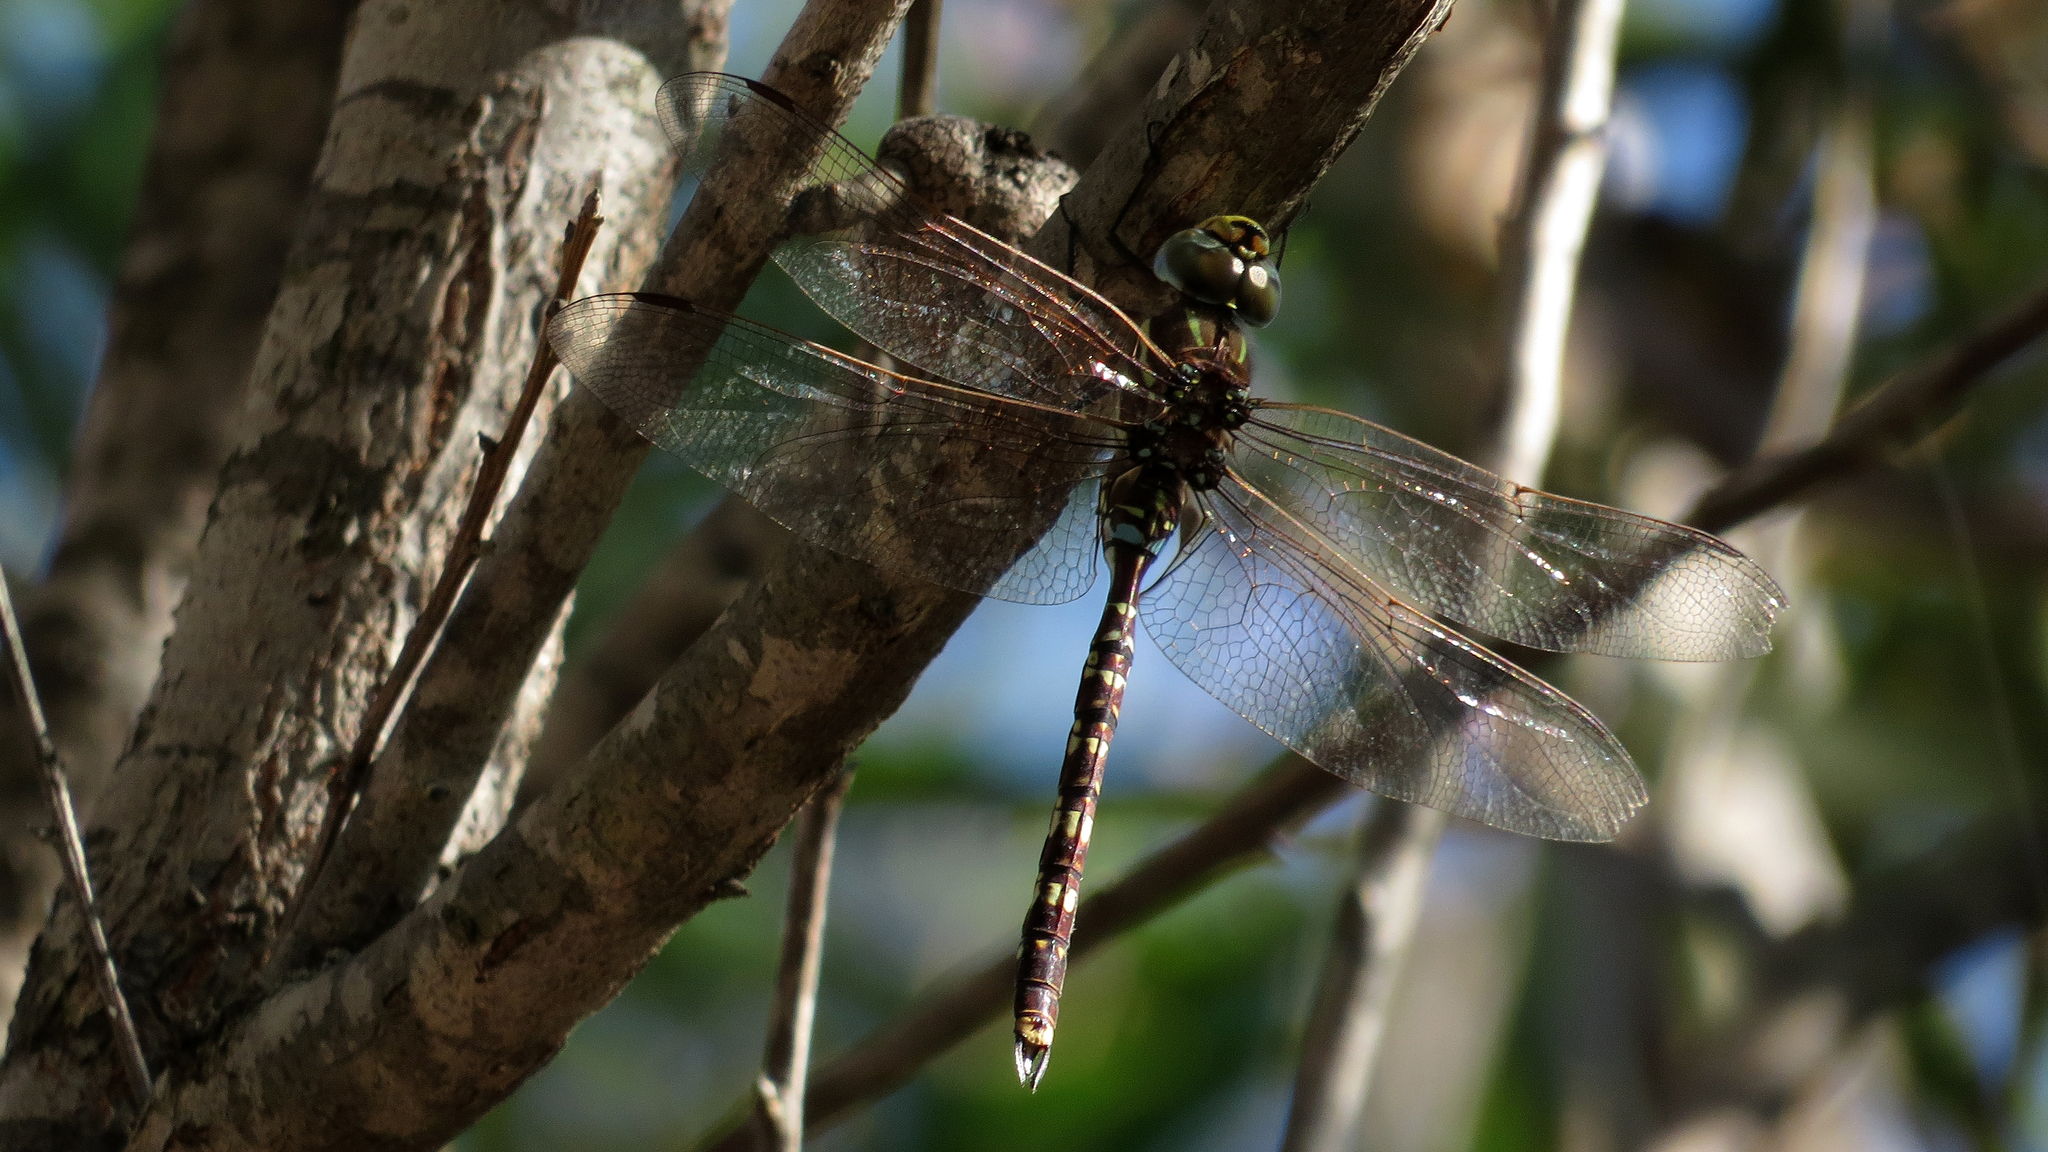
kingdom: Animalia
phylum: Arthropoda
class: Insecta
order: Odonata
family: Aeshnidae
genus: Aeshna
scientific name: Aeshna brevistyla
